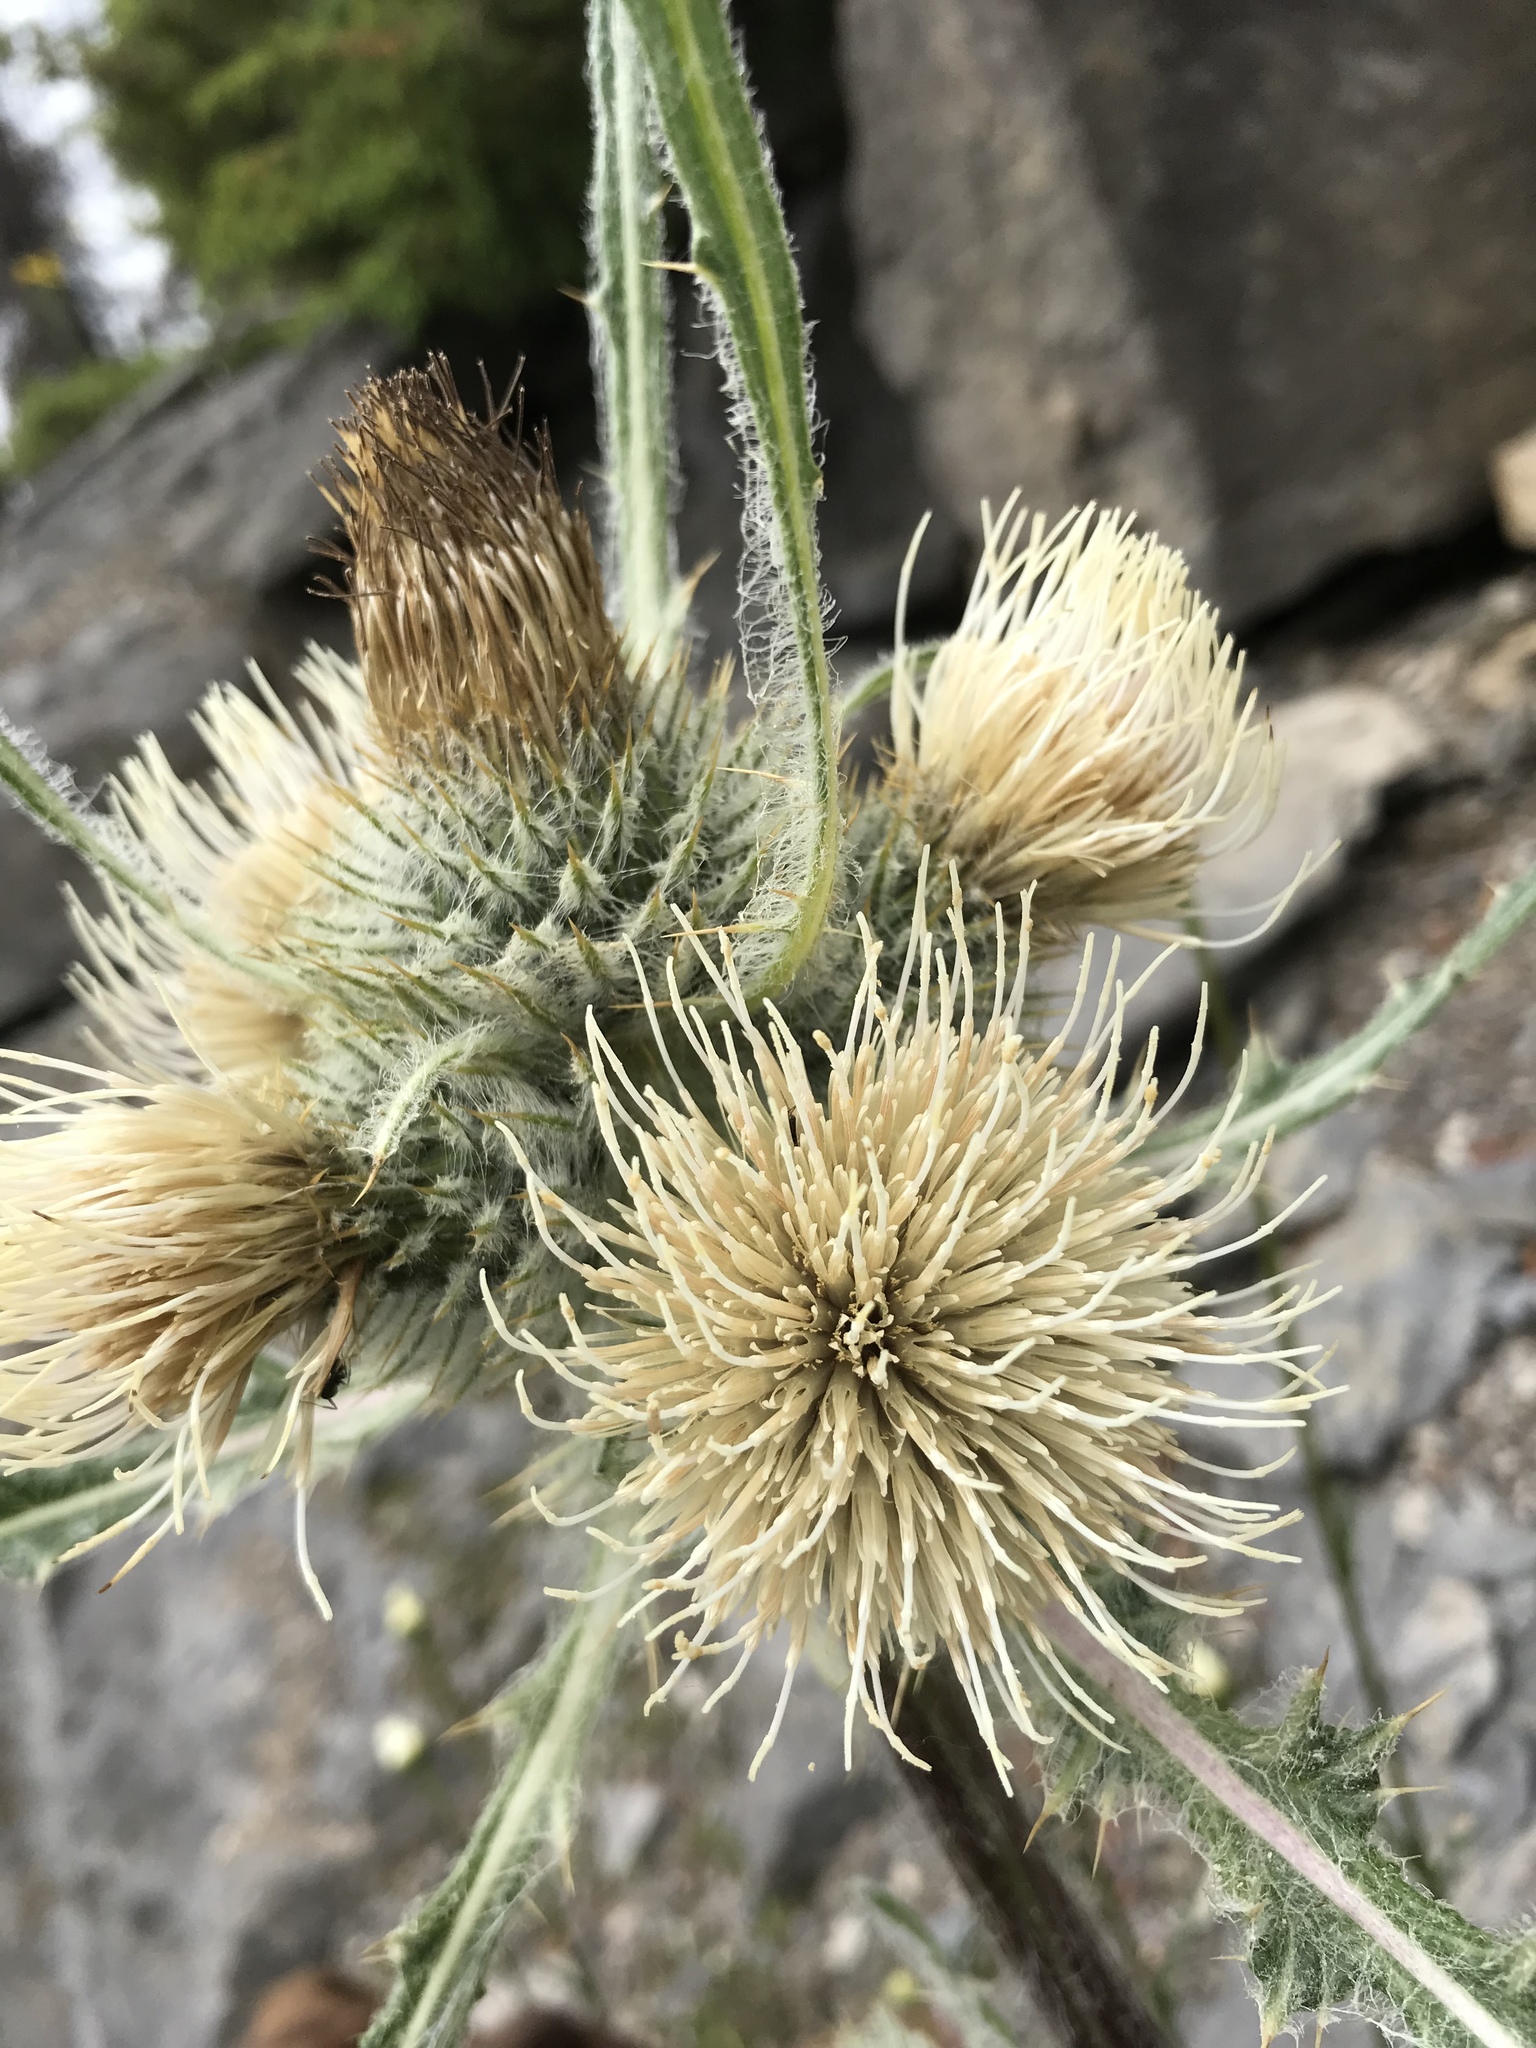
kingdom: Plantae
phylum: Tracheophyta
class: Magnoliopsida
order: Asterales
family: Asteraceae
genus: Cirsium
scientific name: Cirsium hookerianum
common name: Hooker's thistle
